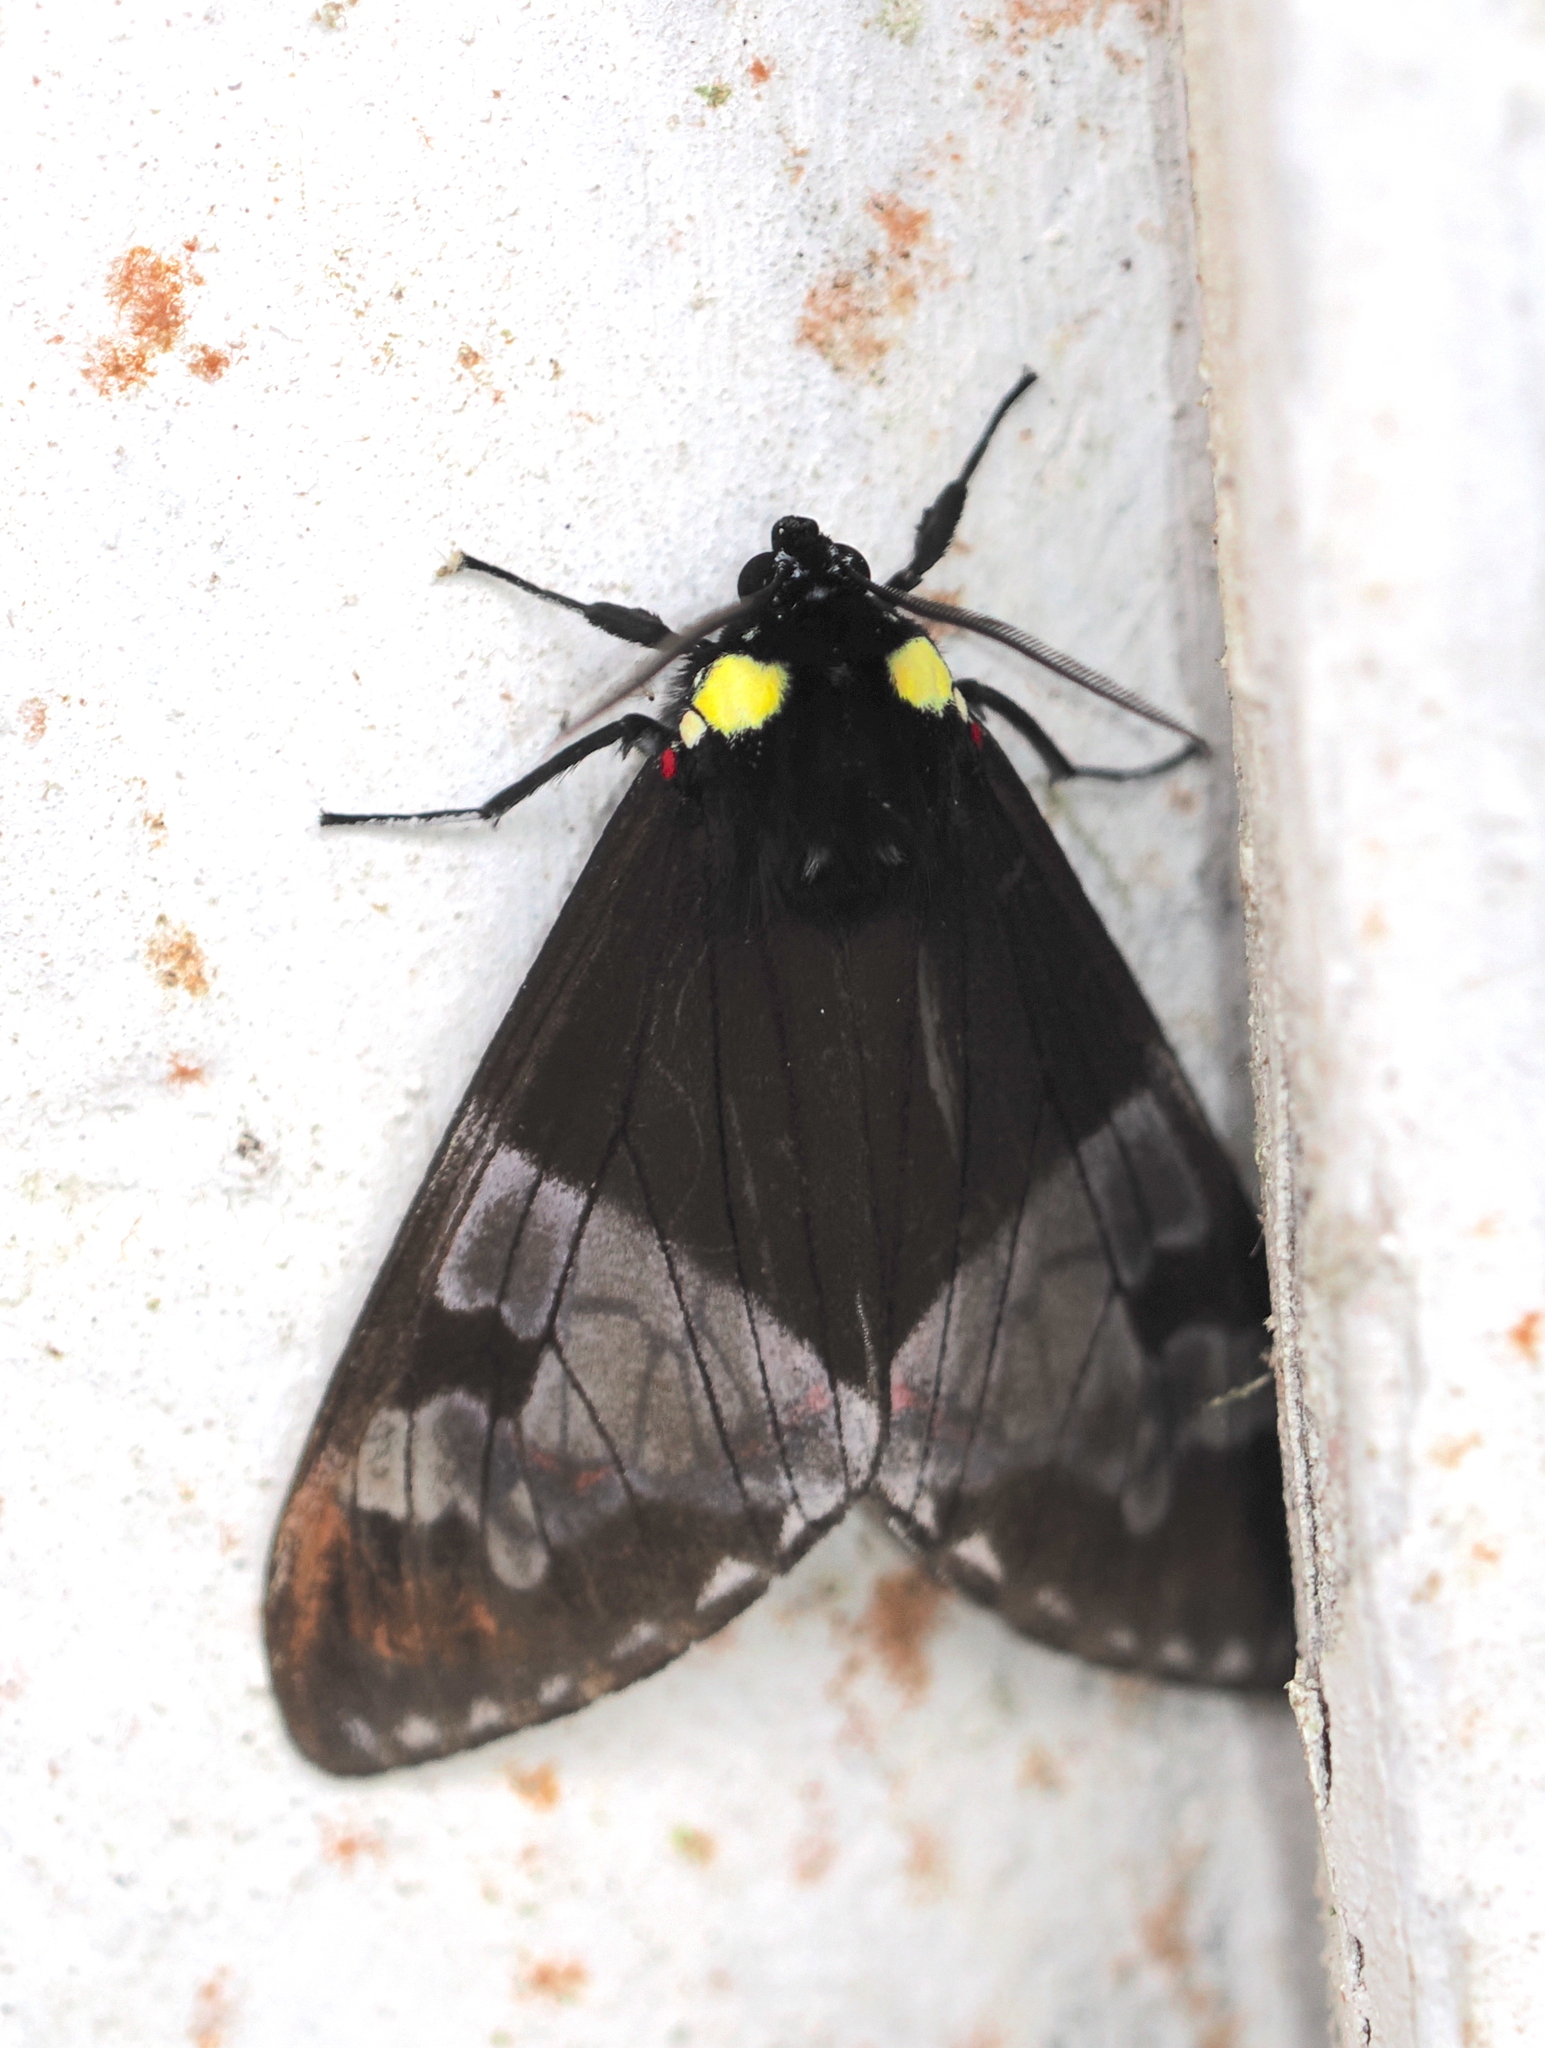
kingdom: Animalia
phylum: Arthropoda
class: Insecta
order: Lepidoptera
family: Erebidae
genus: Dysschema
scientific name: Dysschema marginalis
